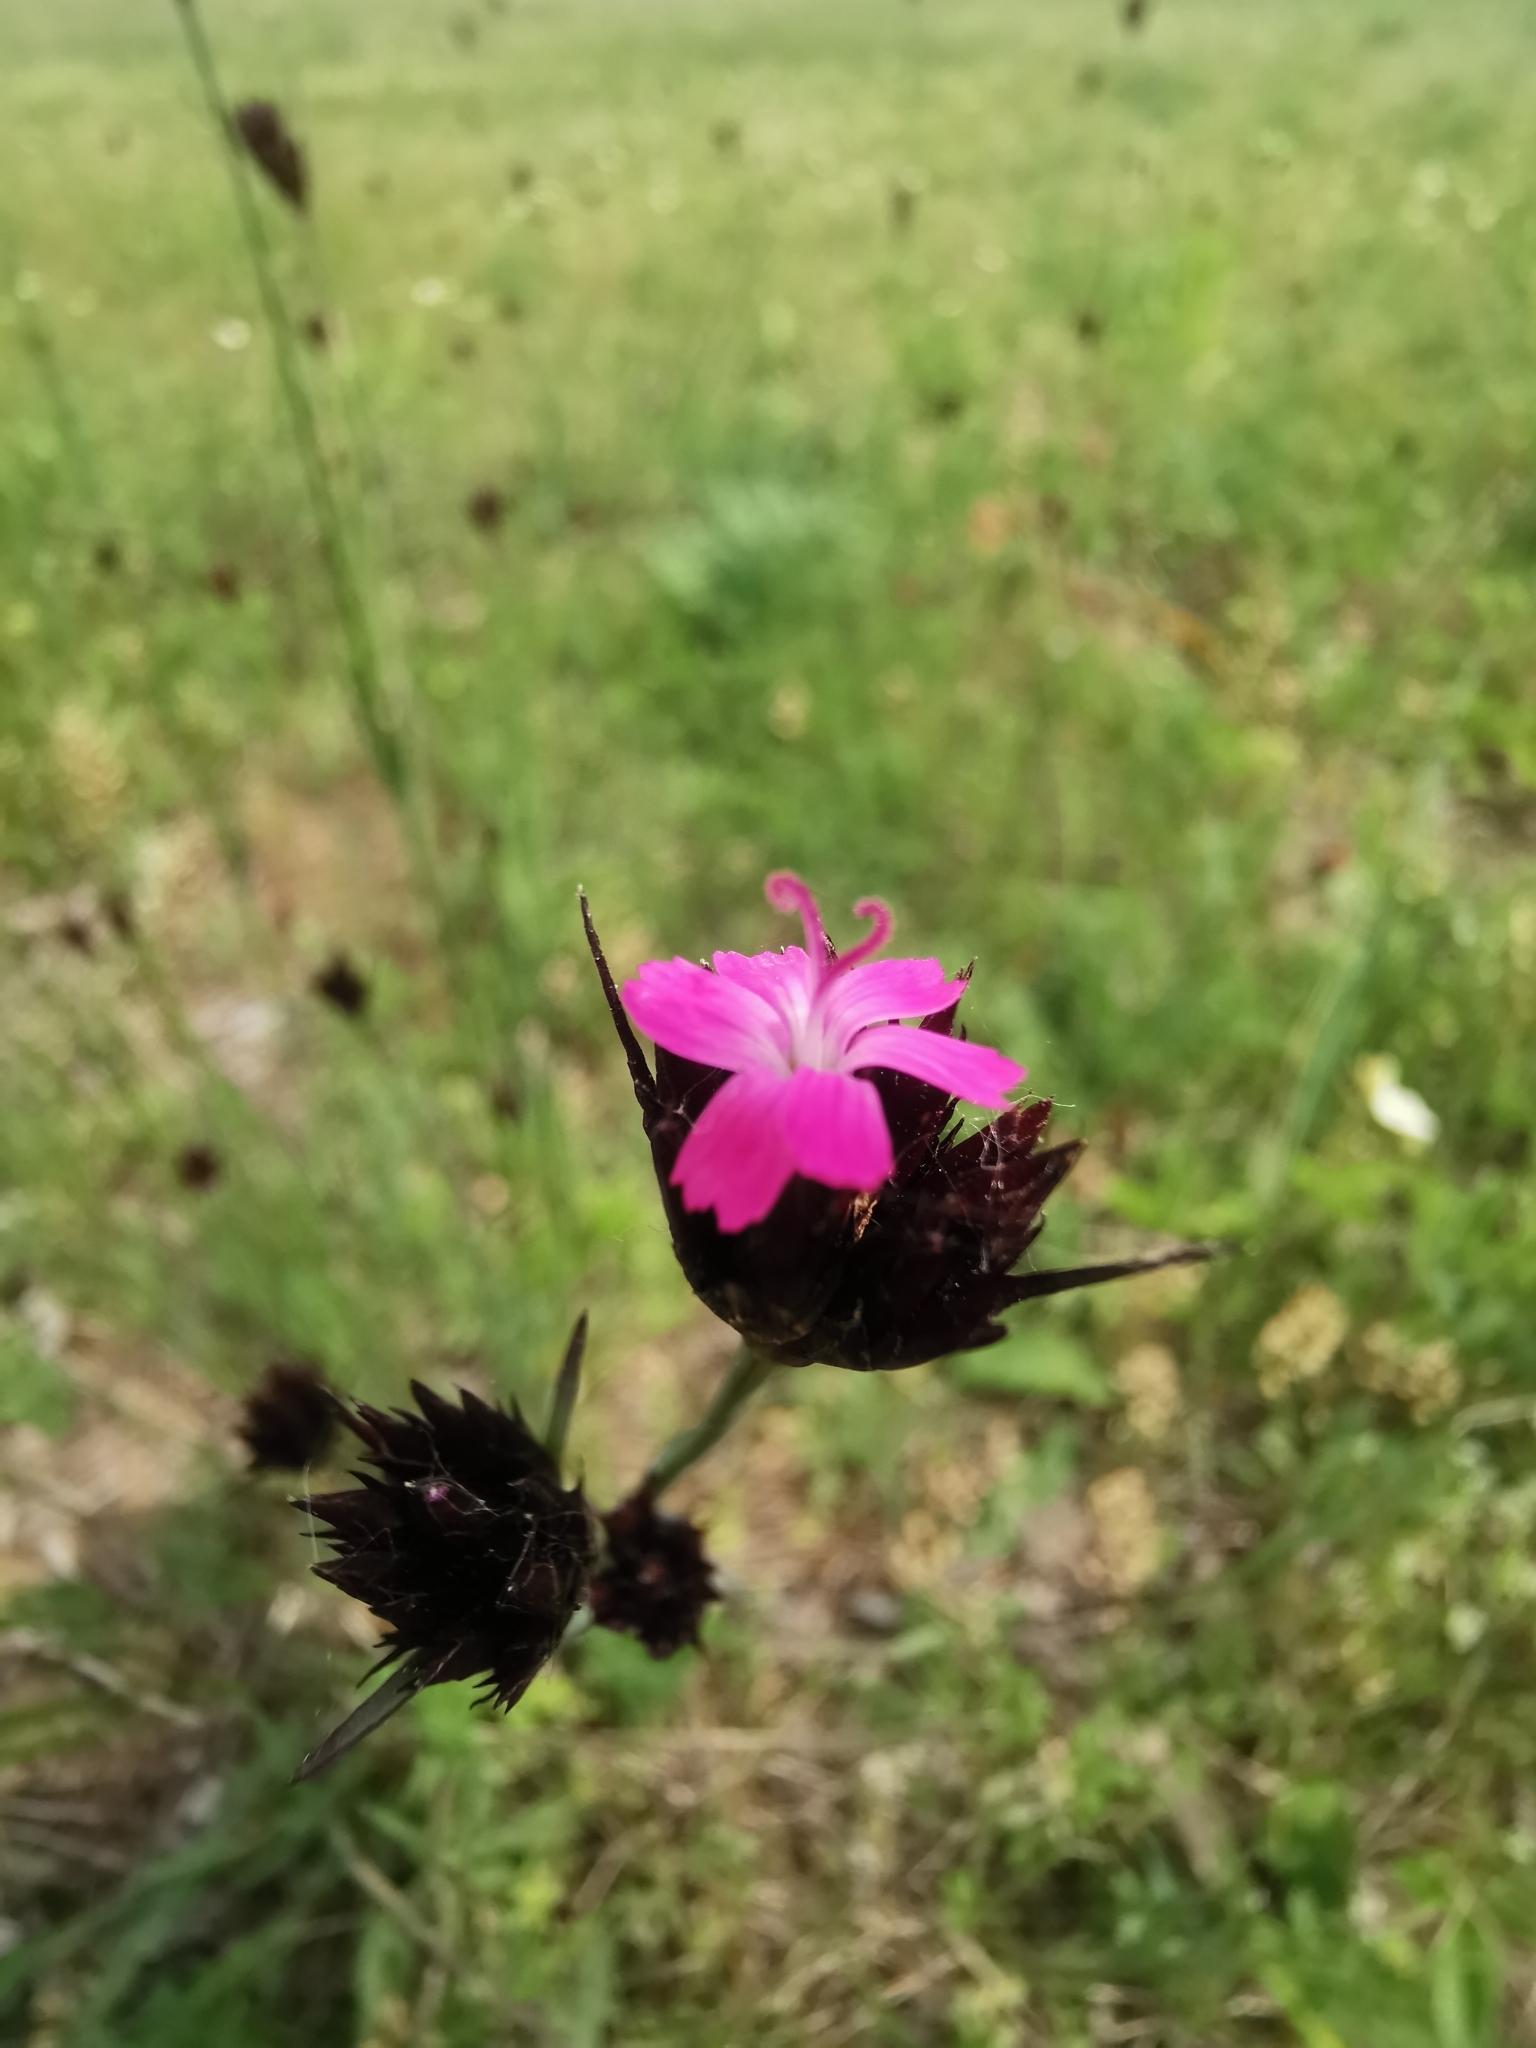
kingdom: Plantae
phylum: Tracheophyta
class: Magnoliopsida
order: Caryophyllales
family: Caryophyllaceae
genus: Dianthus
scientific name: Dianthus pontederae
